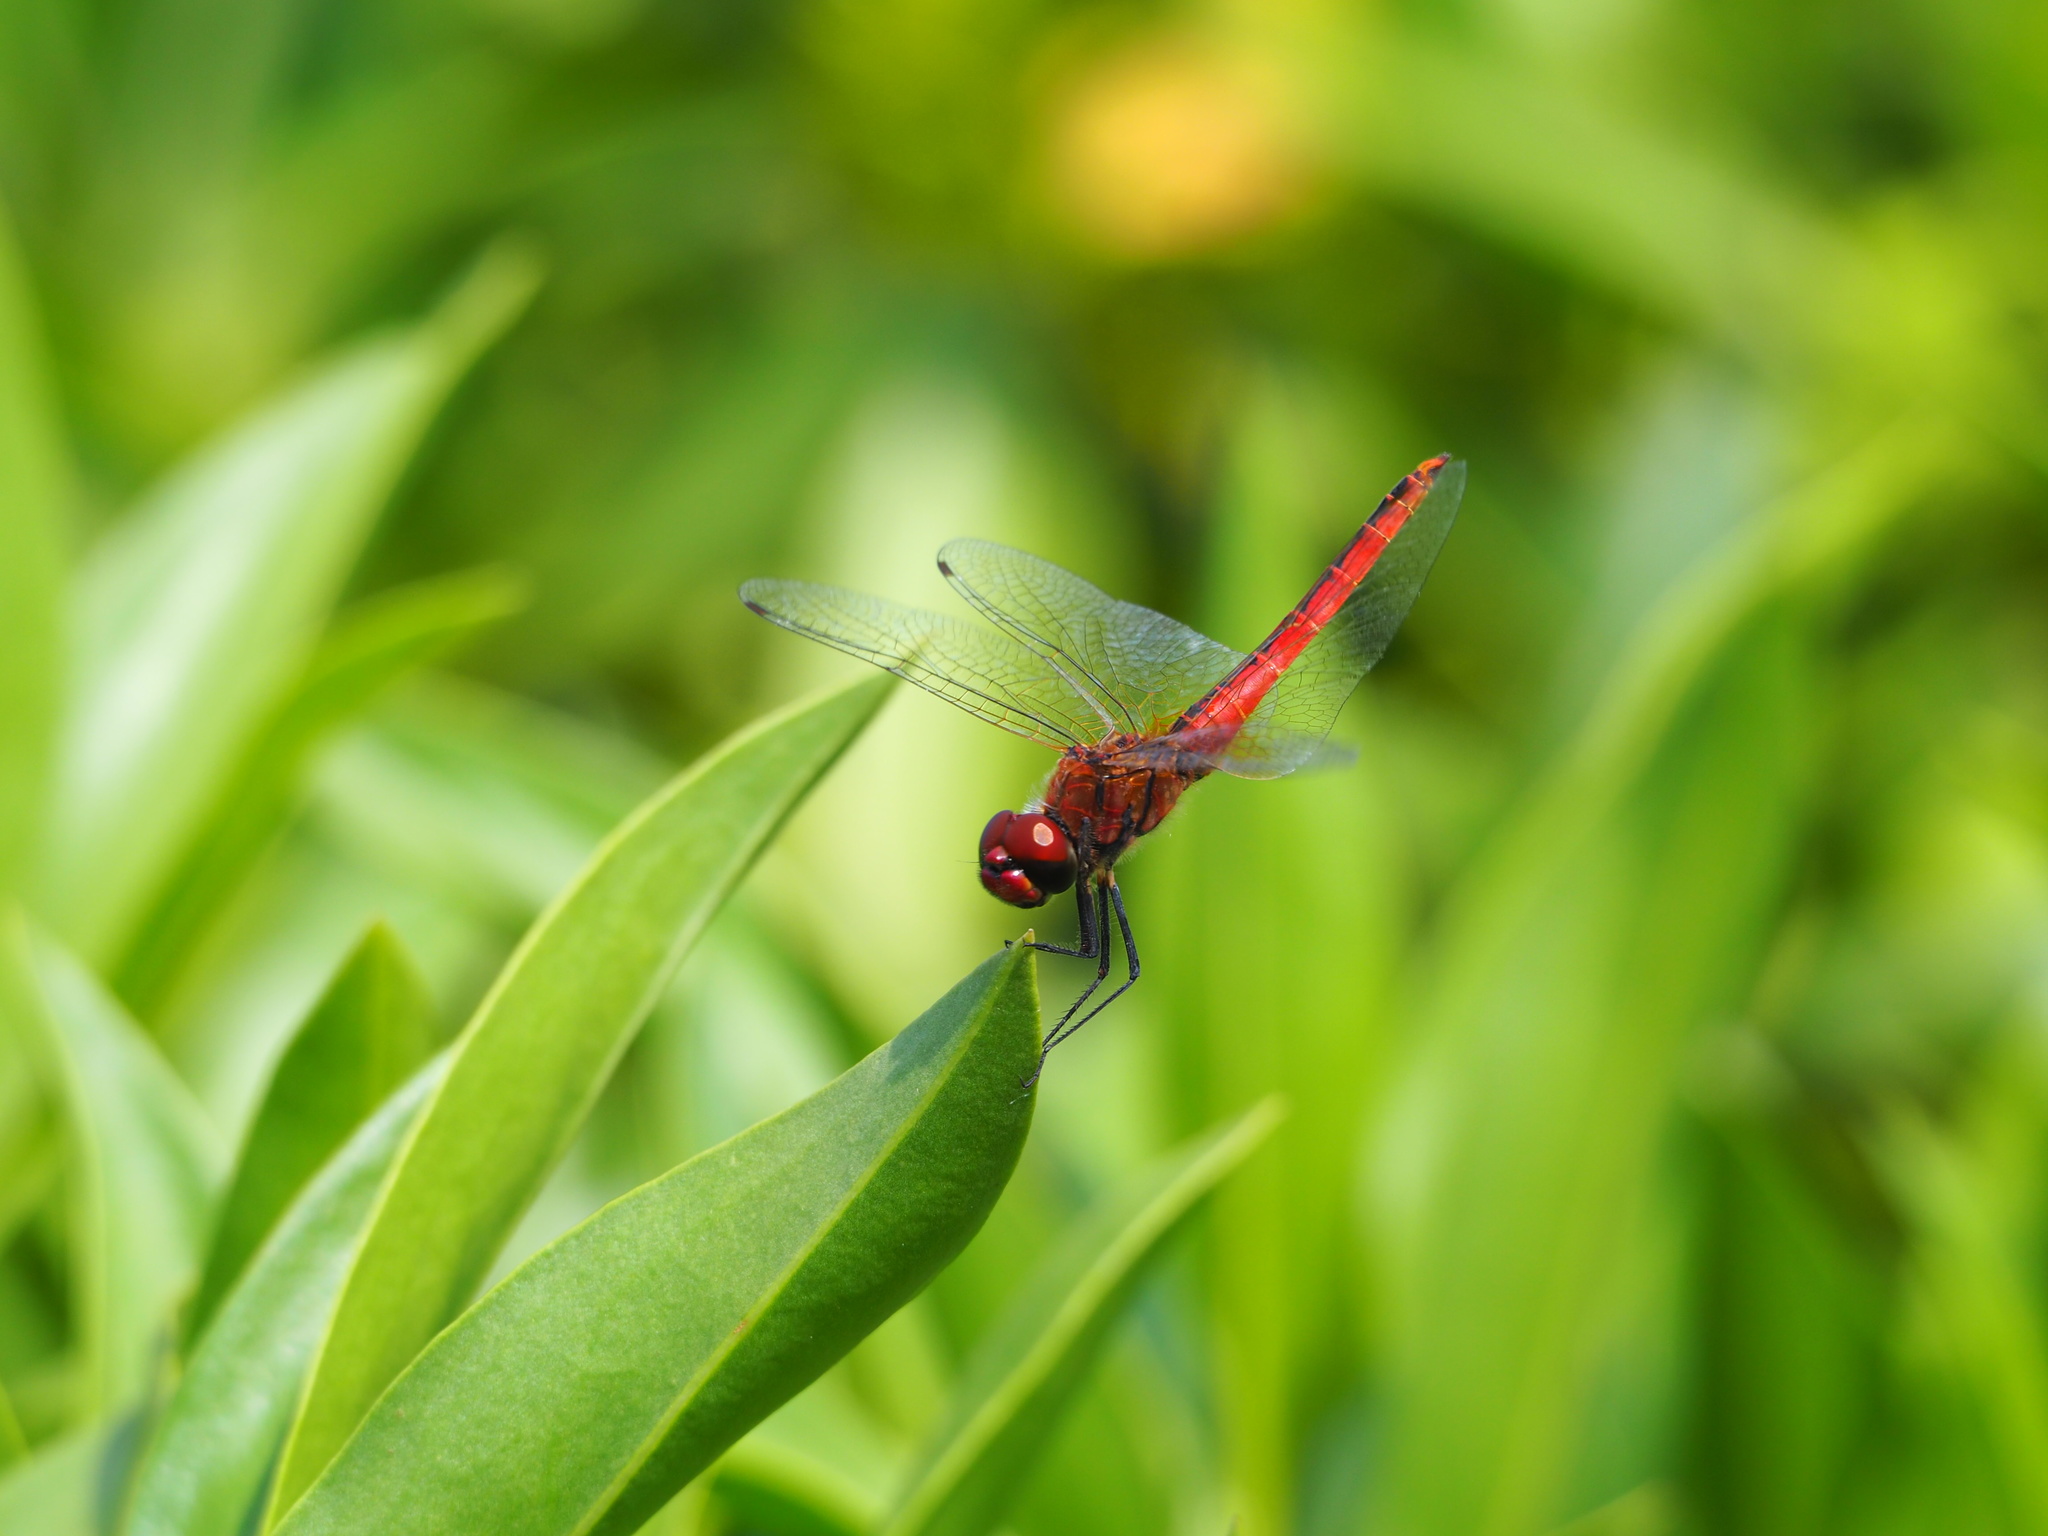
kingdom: Animalia
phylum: Arthropoda
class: Insecta
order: Odonata
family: Libellulidae
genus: Macrodiplax
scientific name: Macrodiplax cora
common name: Coastal glider
